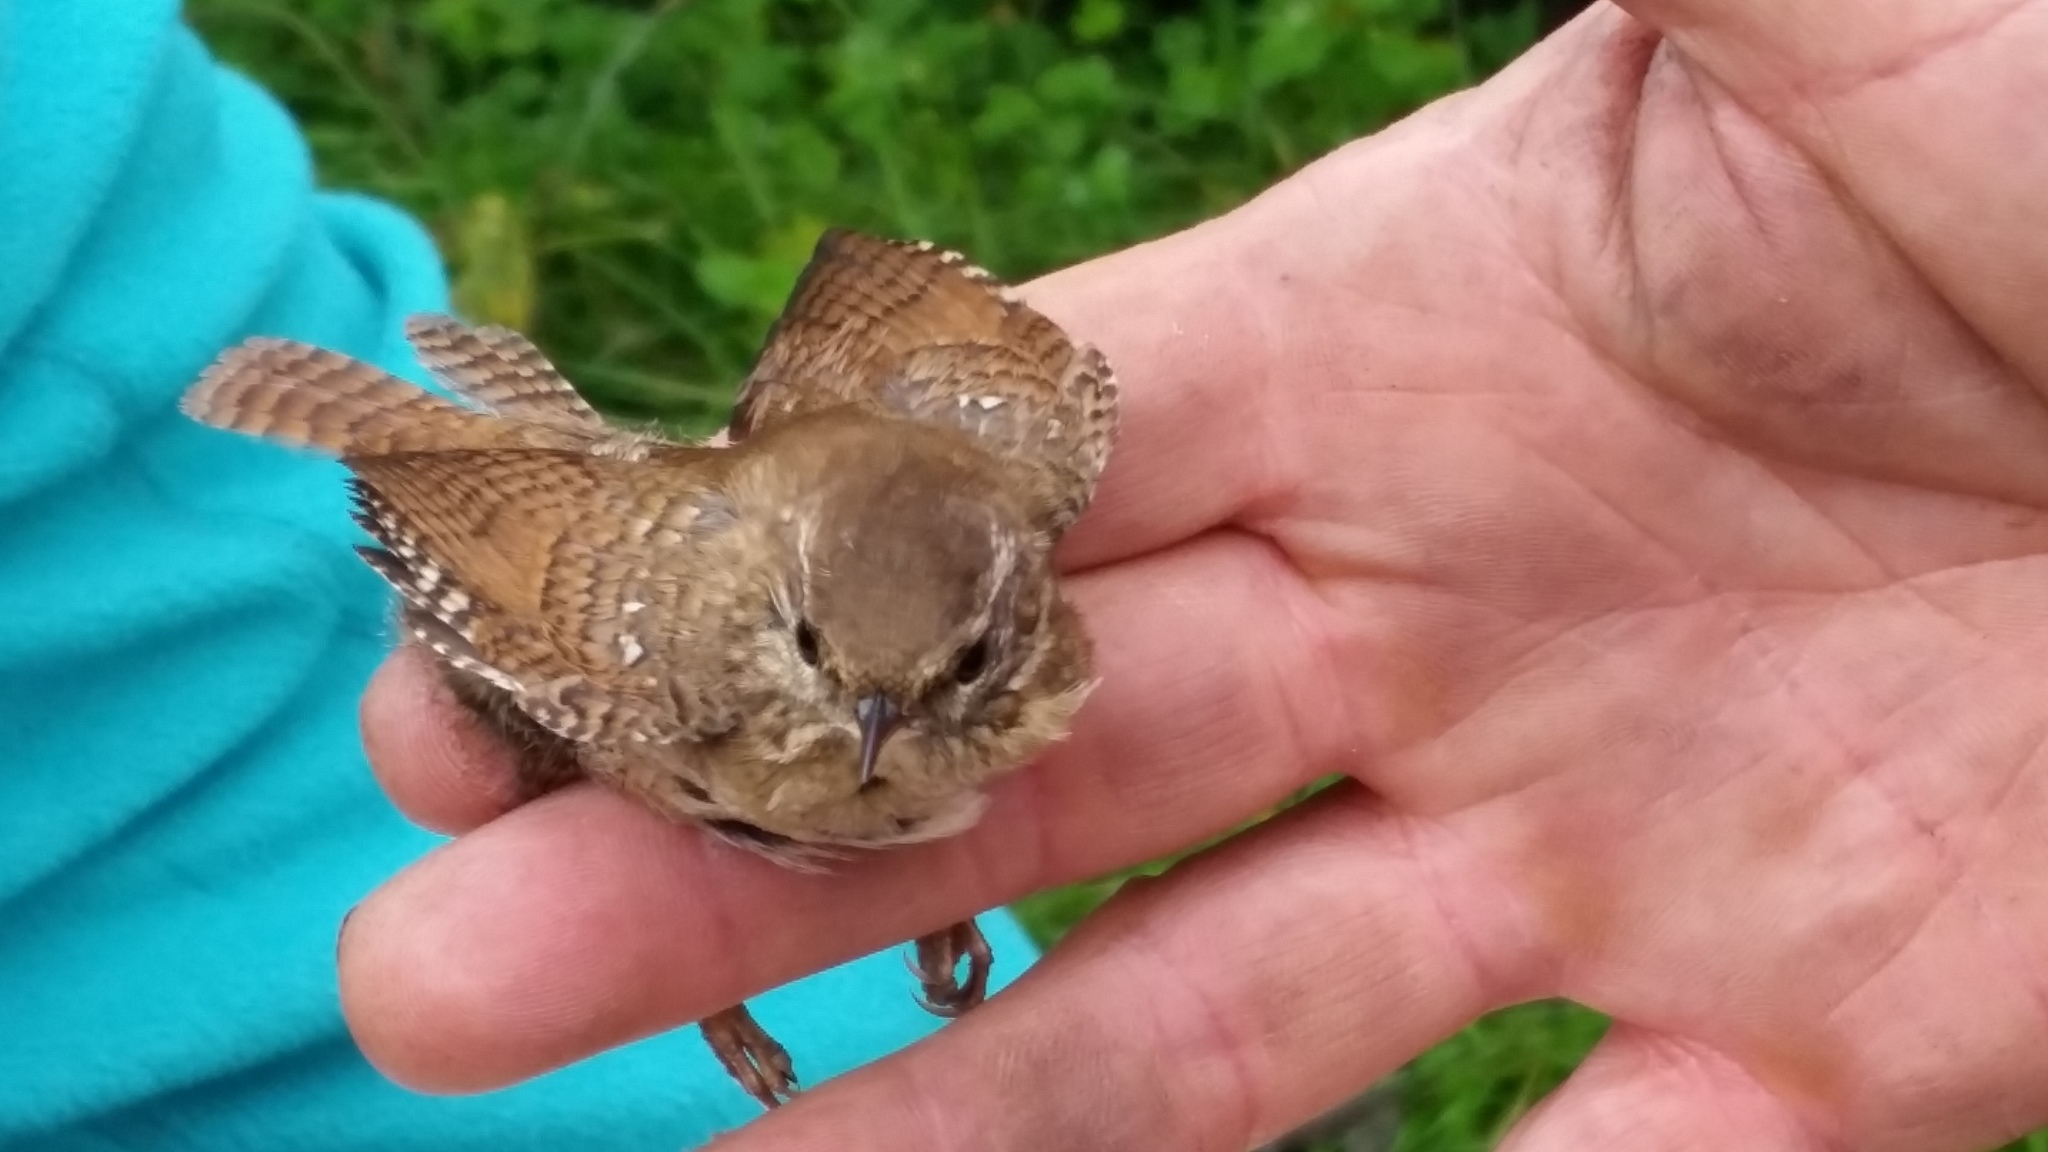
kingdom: Animalia
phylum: Chordata
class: Aves
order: Passeriformes
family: Troglodytidae
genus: Troglodytes
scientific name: Troglodytes troglodytes
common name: Eurasian wren
